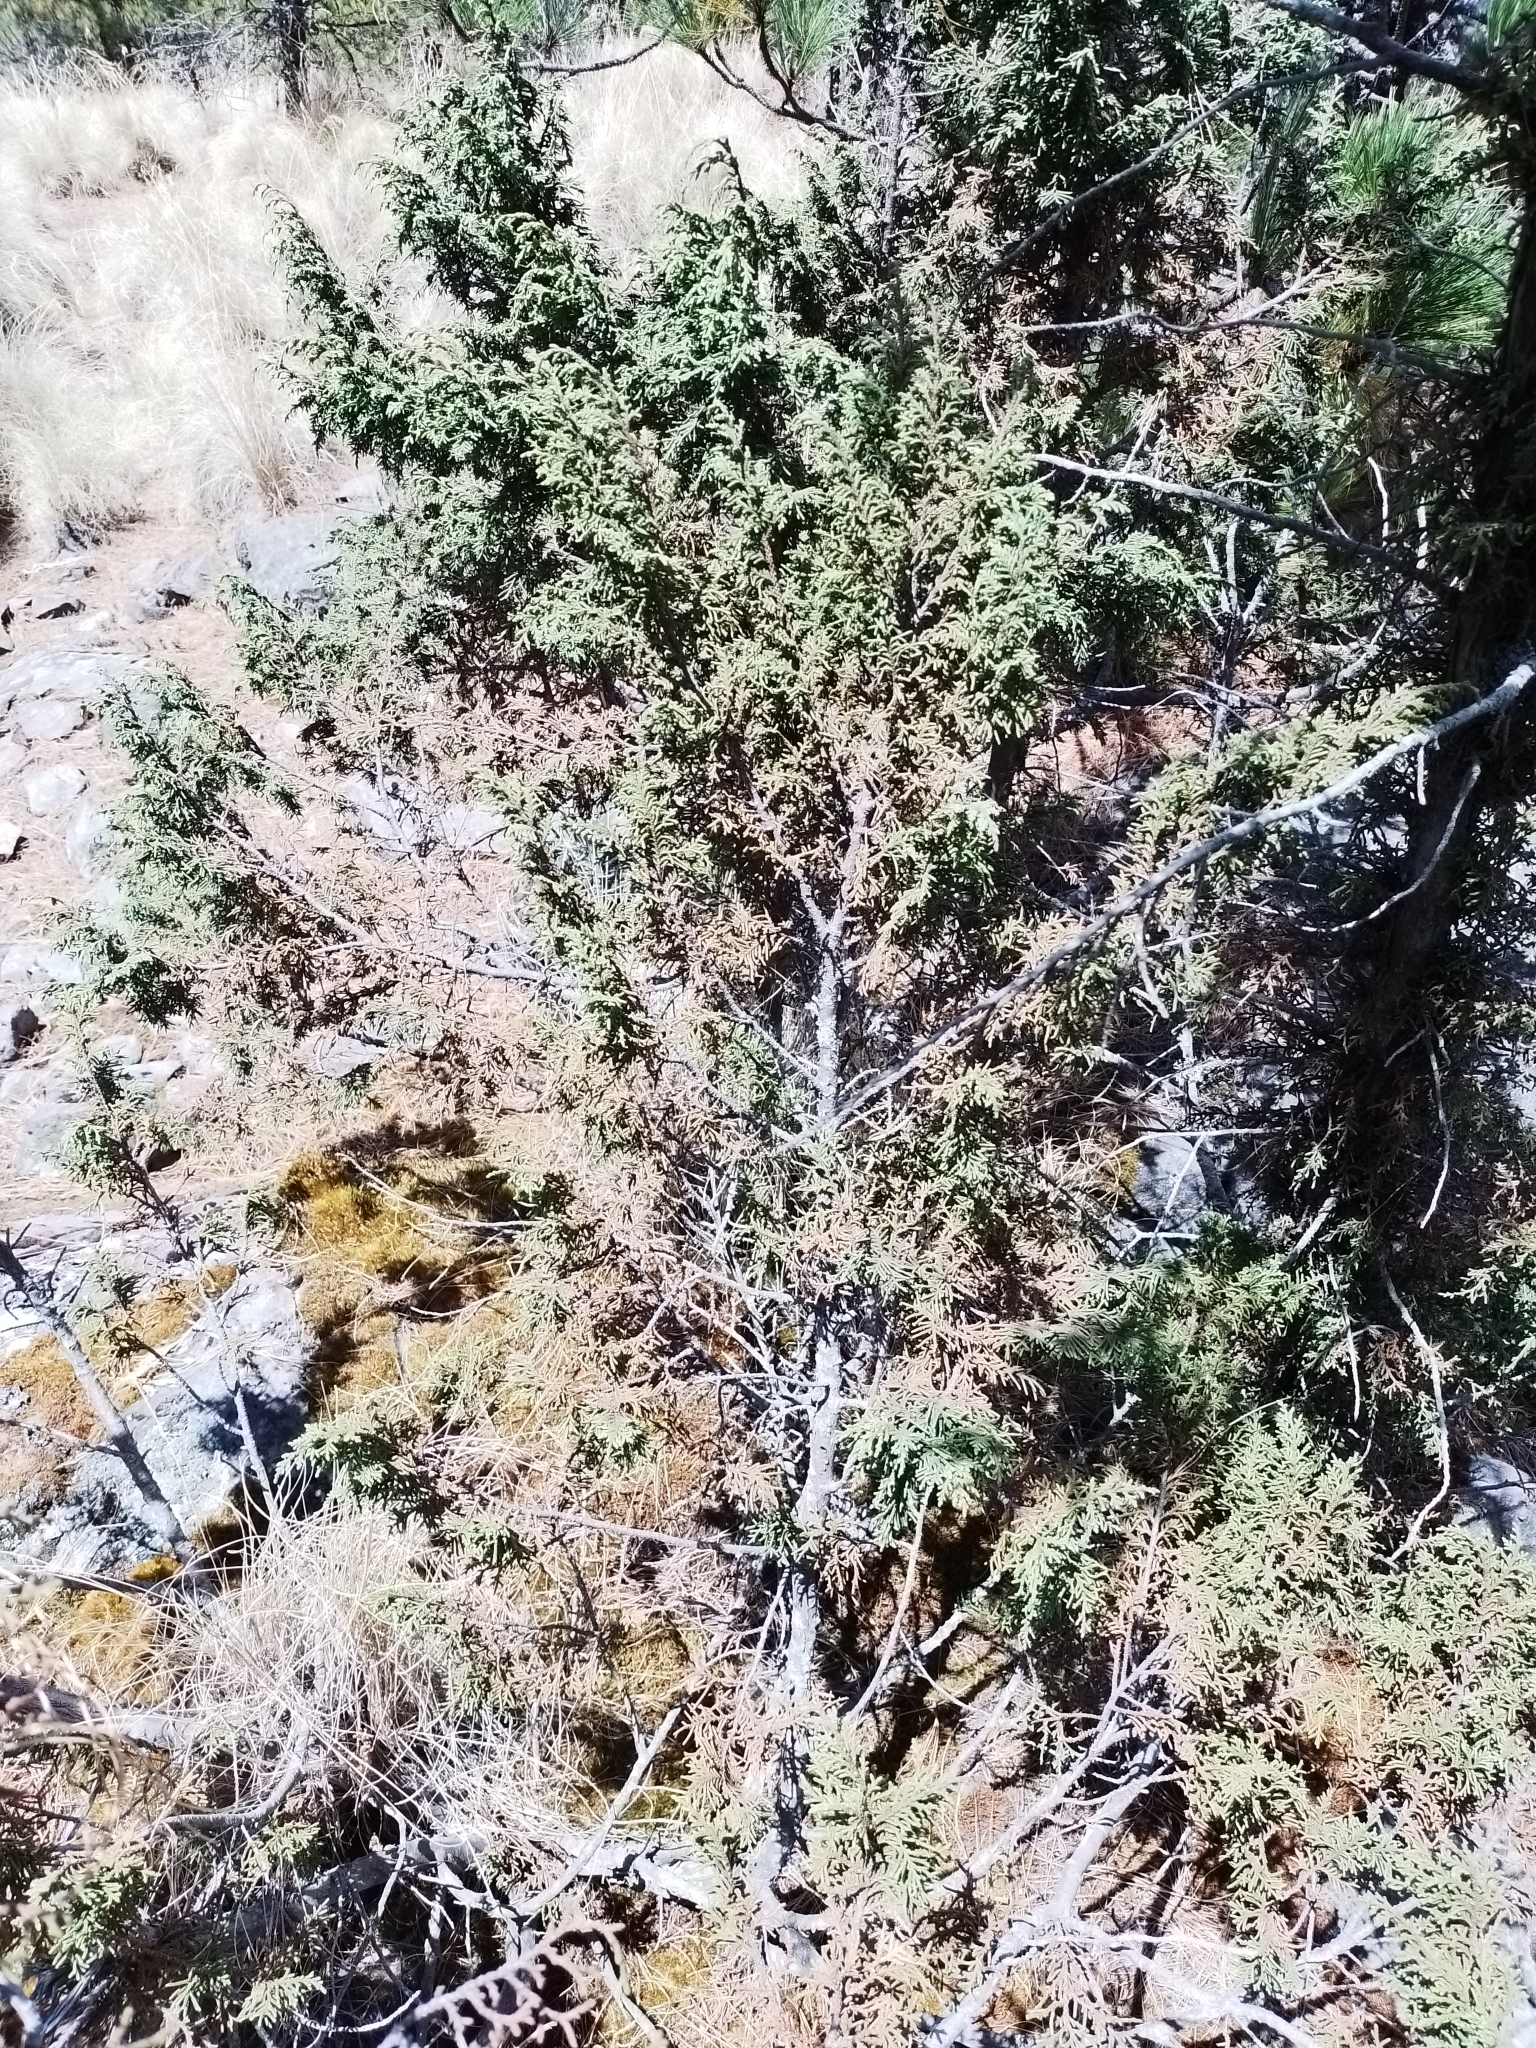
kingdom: Plantae
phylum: Tracheophyta
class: Pinopsida
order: Pinales
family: Cupressaceae
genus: Juniperus
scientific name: Juniperus monticola
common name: Mexican juniper
